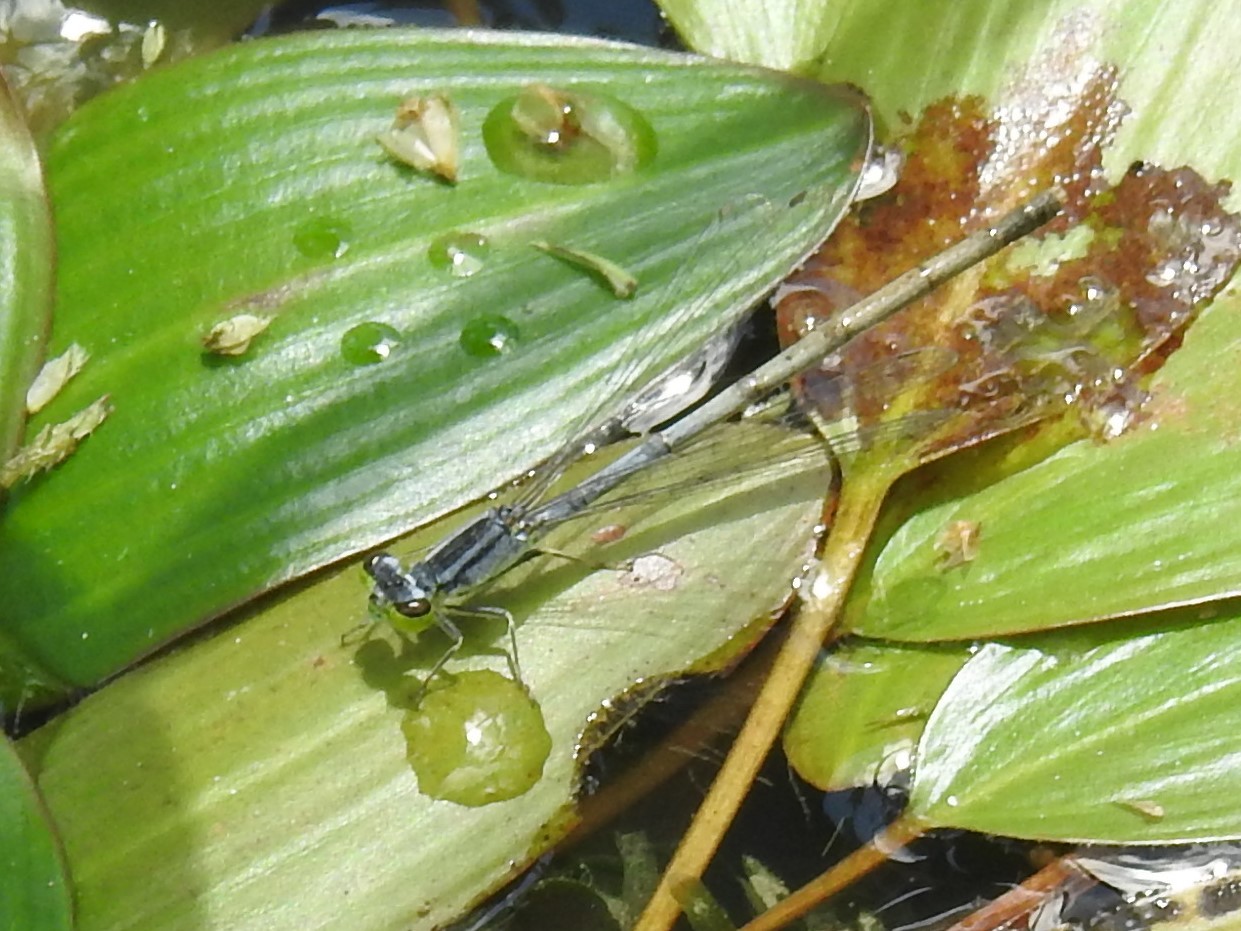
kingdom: Animalia
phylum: Arthropoda
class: Insecta
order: Odonata
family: Coenagrionidae
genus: Ischnura
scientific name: Ischnura verticalis
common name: Eastern forktail
